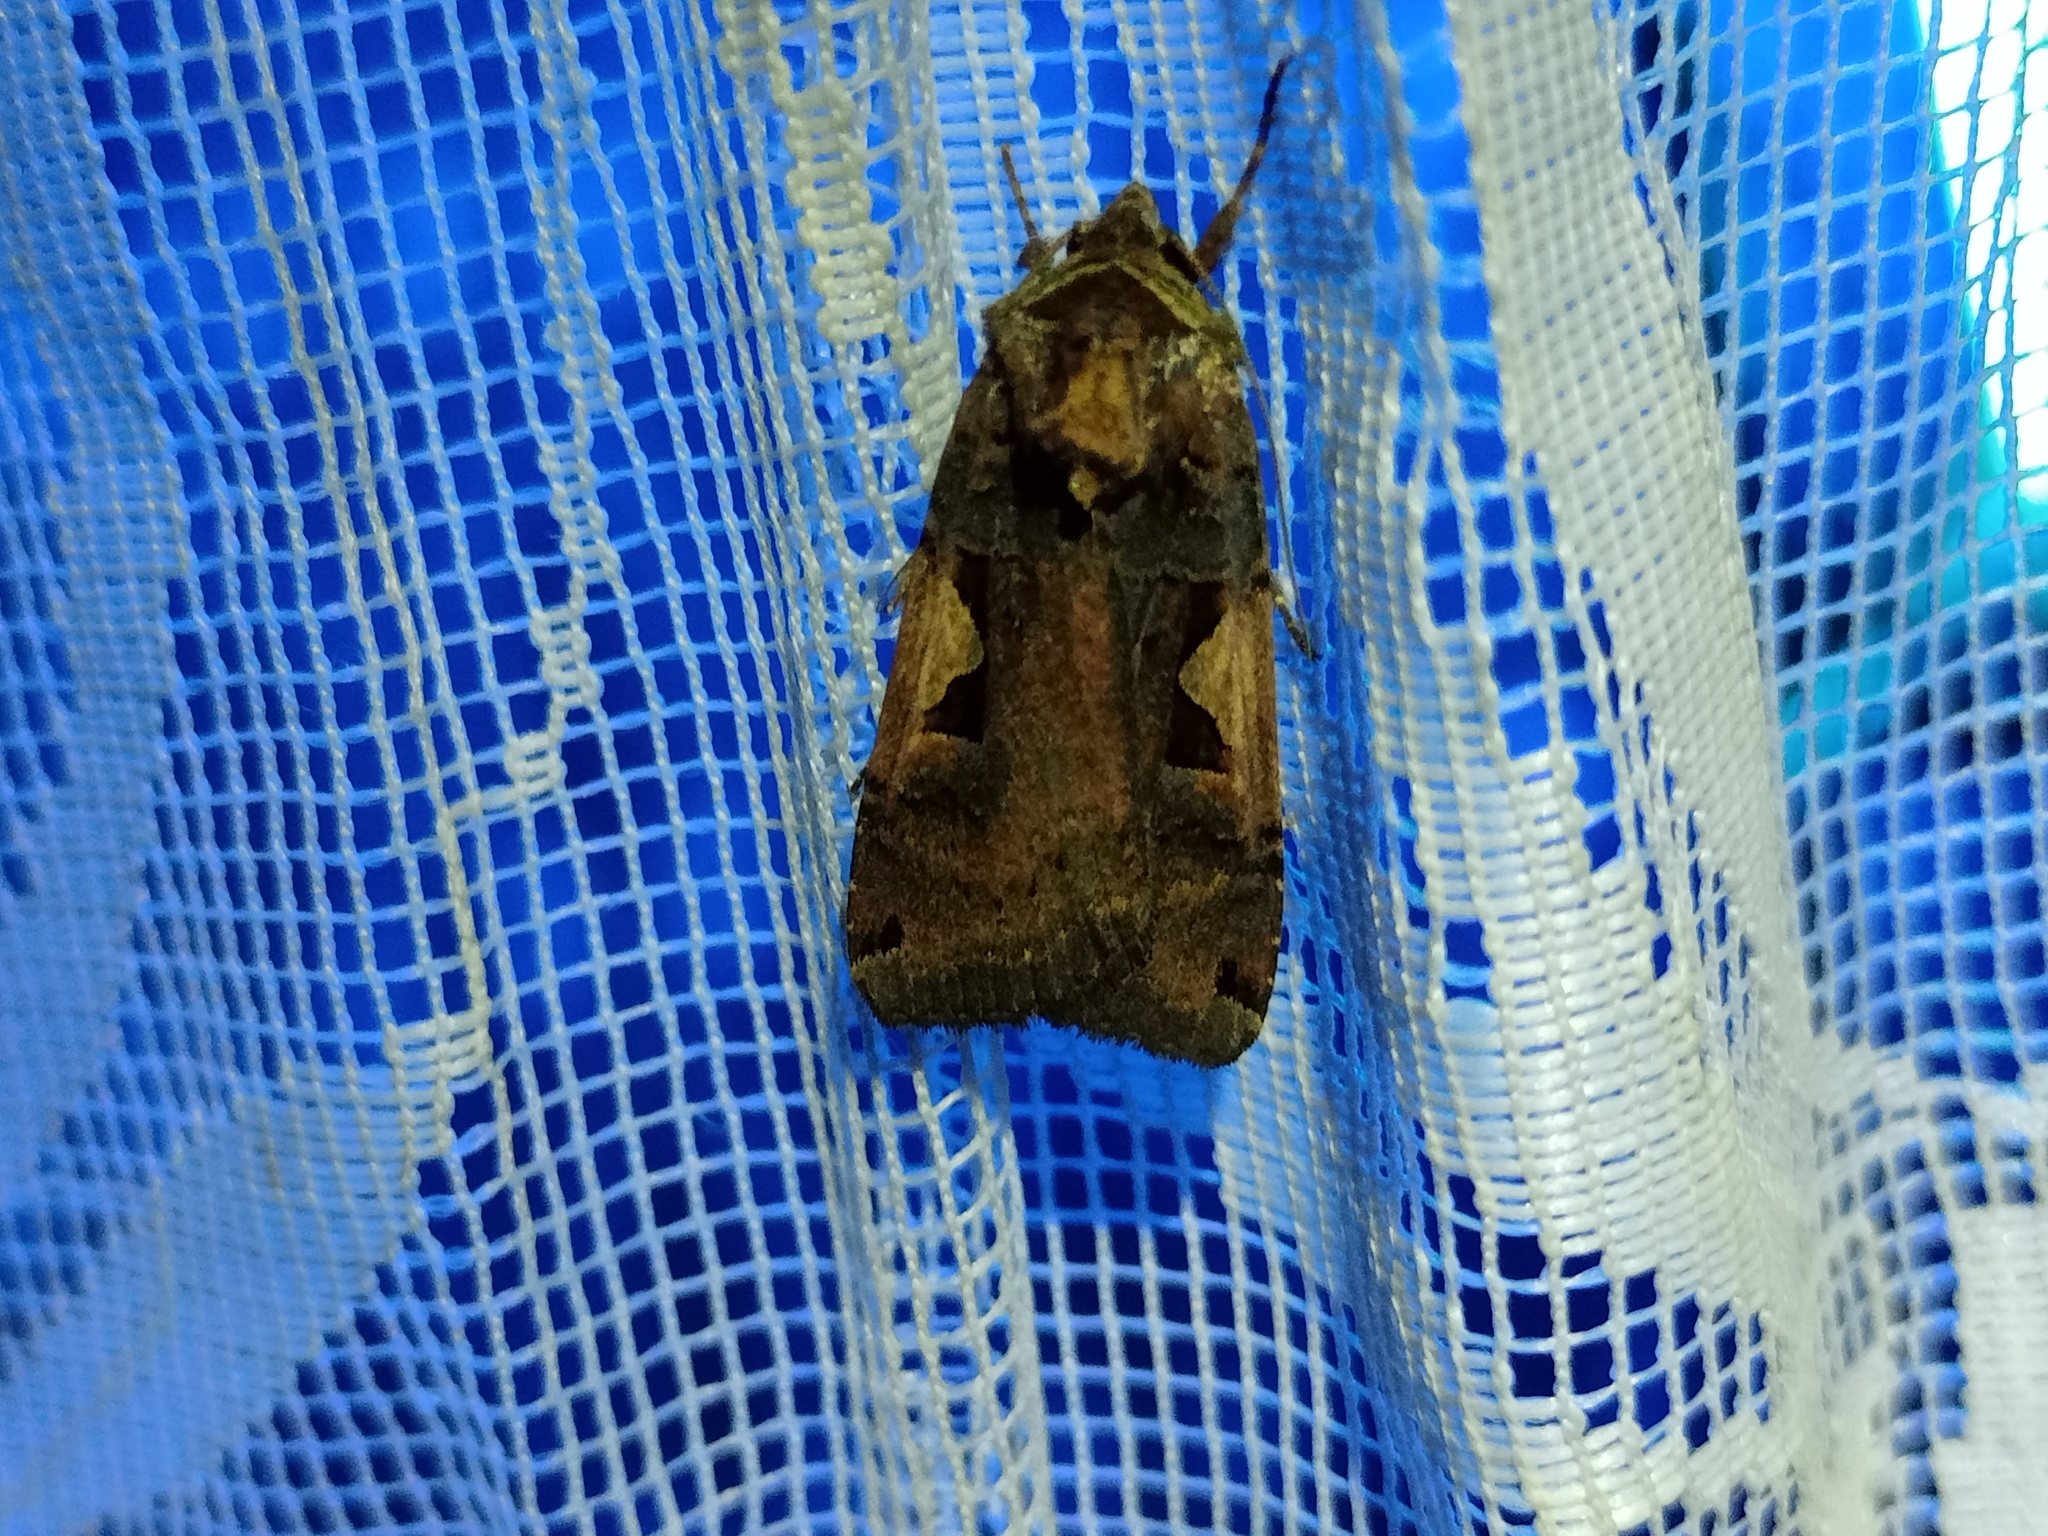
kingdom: Animalia
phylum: Arthropoda
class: Insecta
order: Lepidoptera
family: Noctuidae
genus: Xestia
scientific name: Xestia c-nigrum
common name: Setaceous hebrew character
